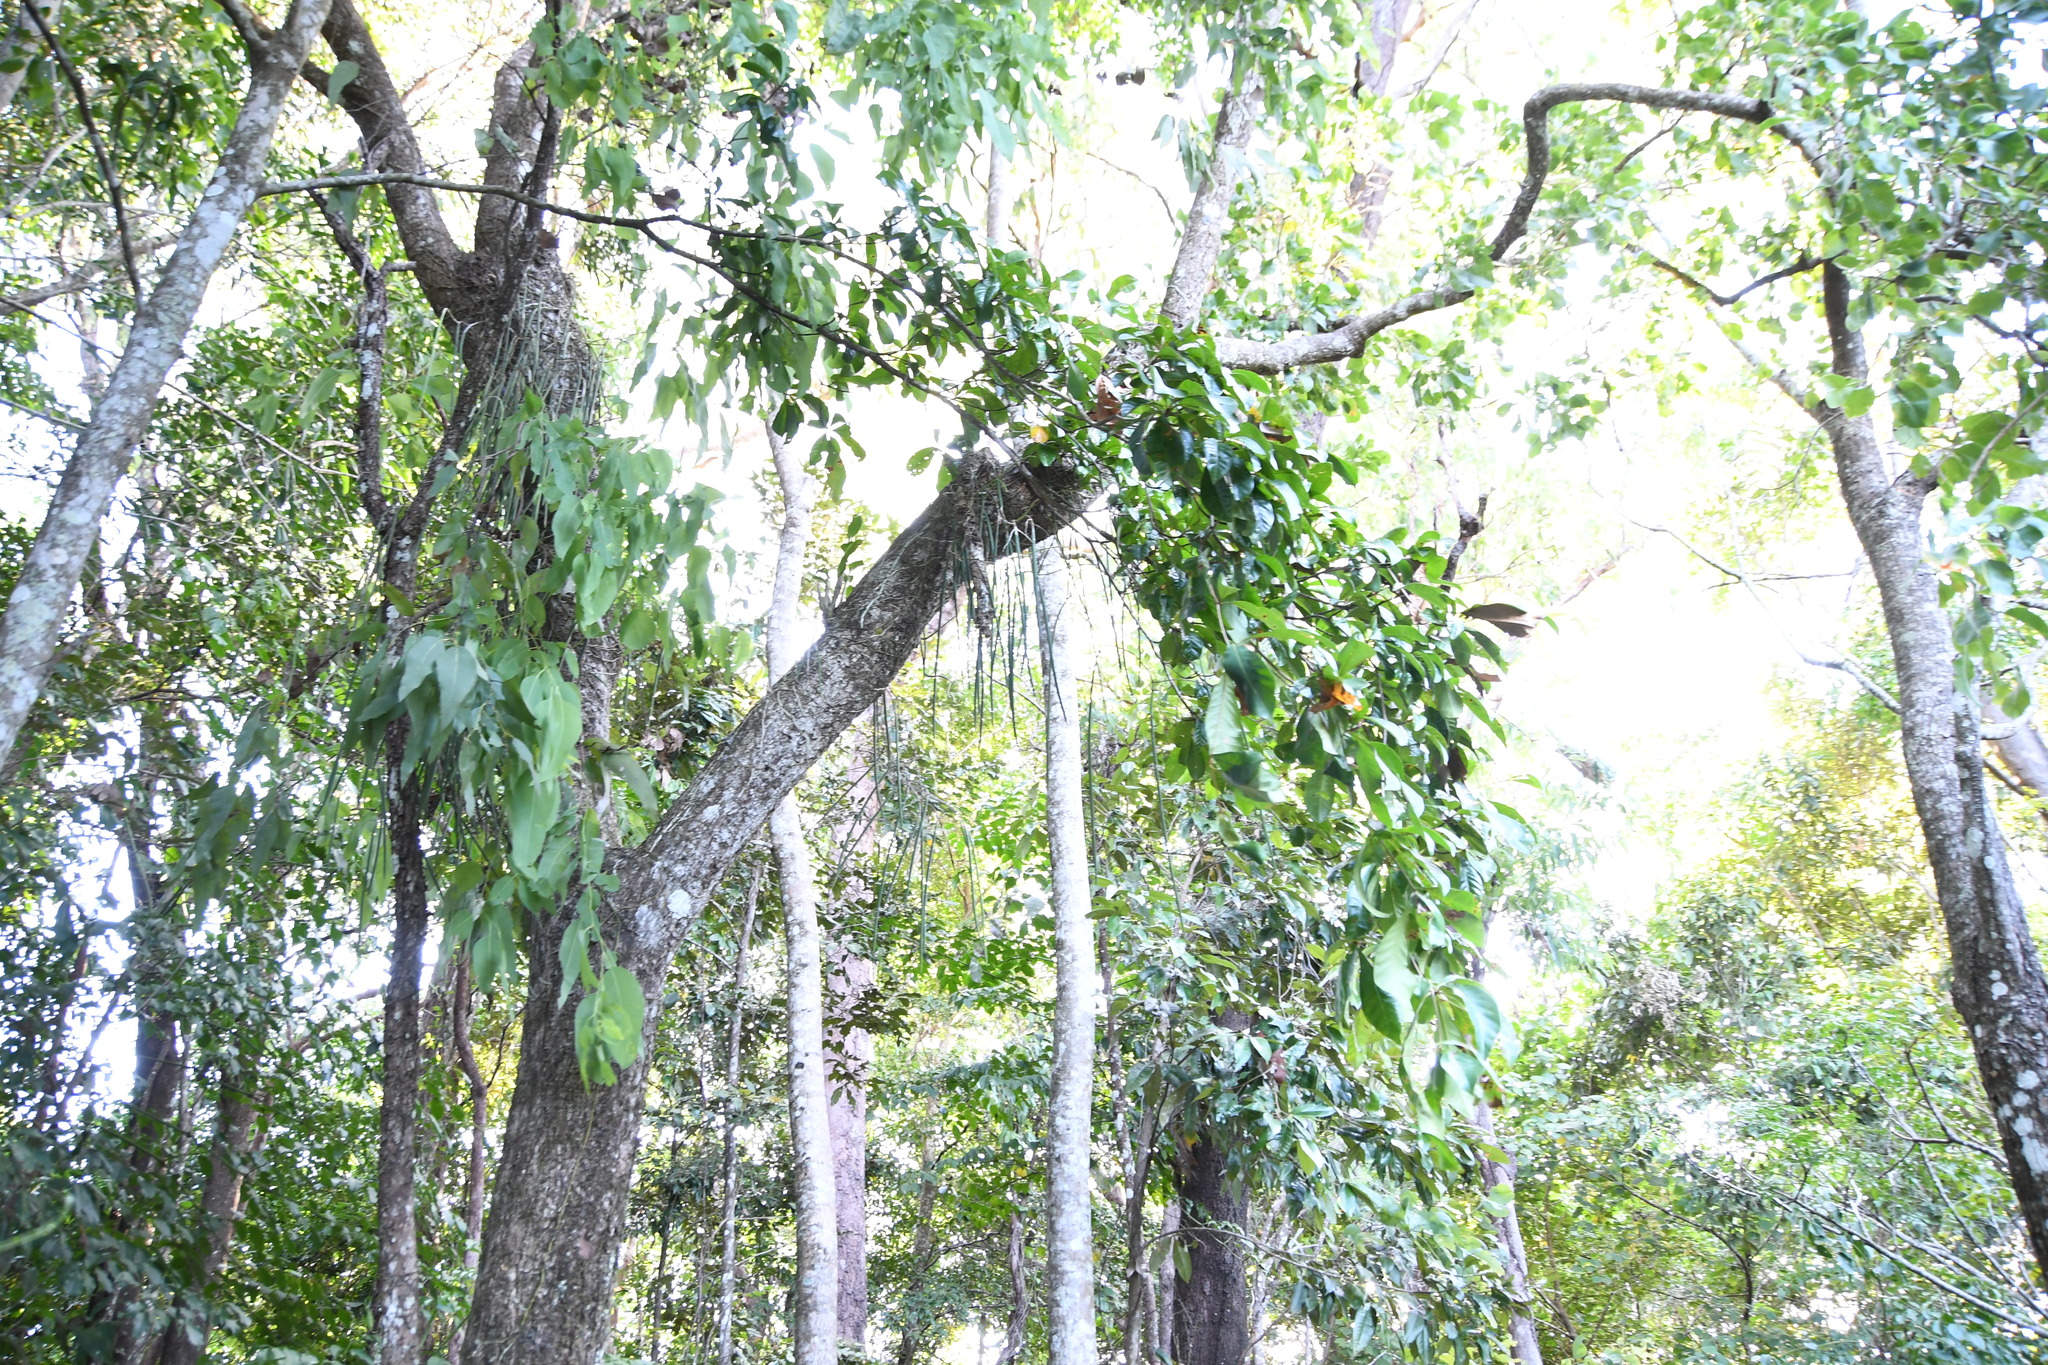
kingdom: Plantae
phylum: Tracheophyta
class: Liliopsida
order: Asparagales
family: Orchidaceae
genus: Dendrobium
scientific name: Dendrobium teretifolium
